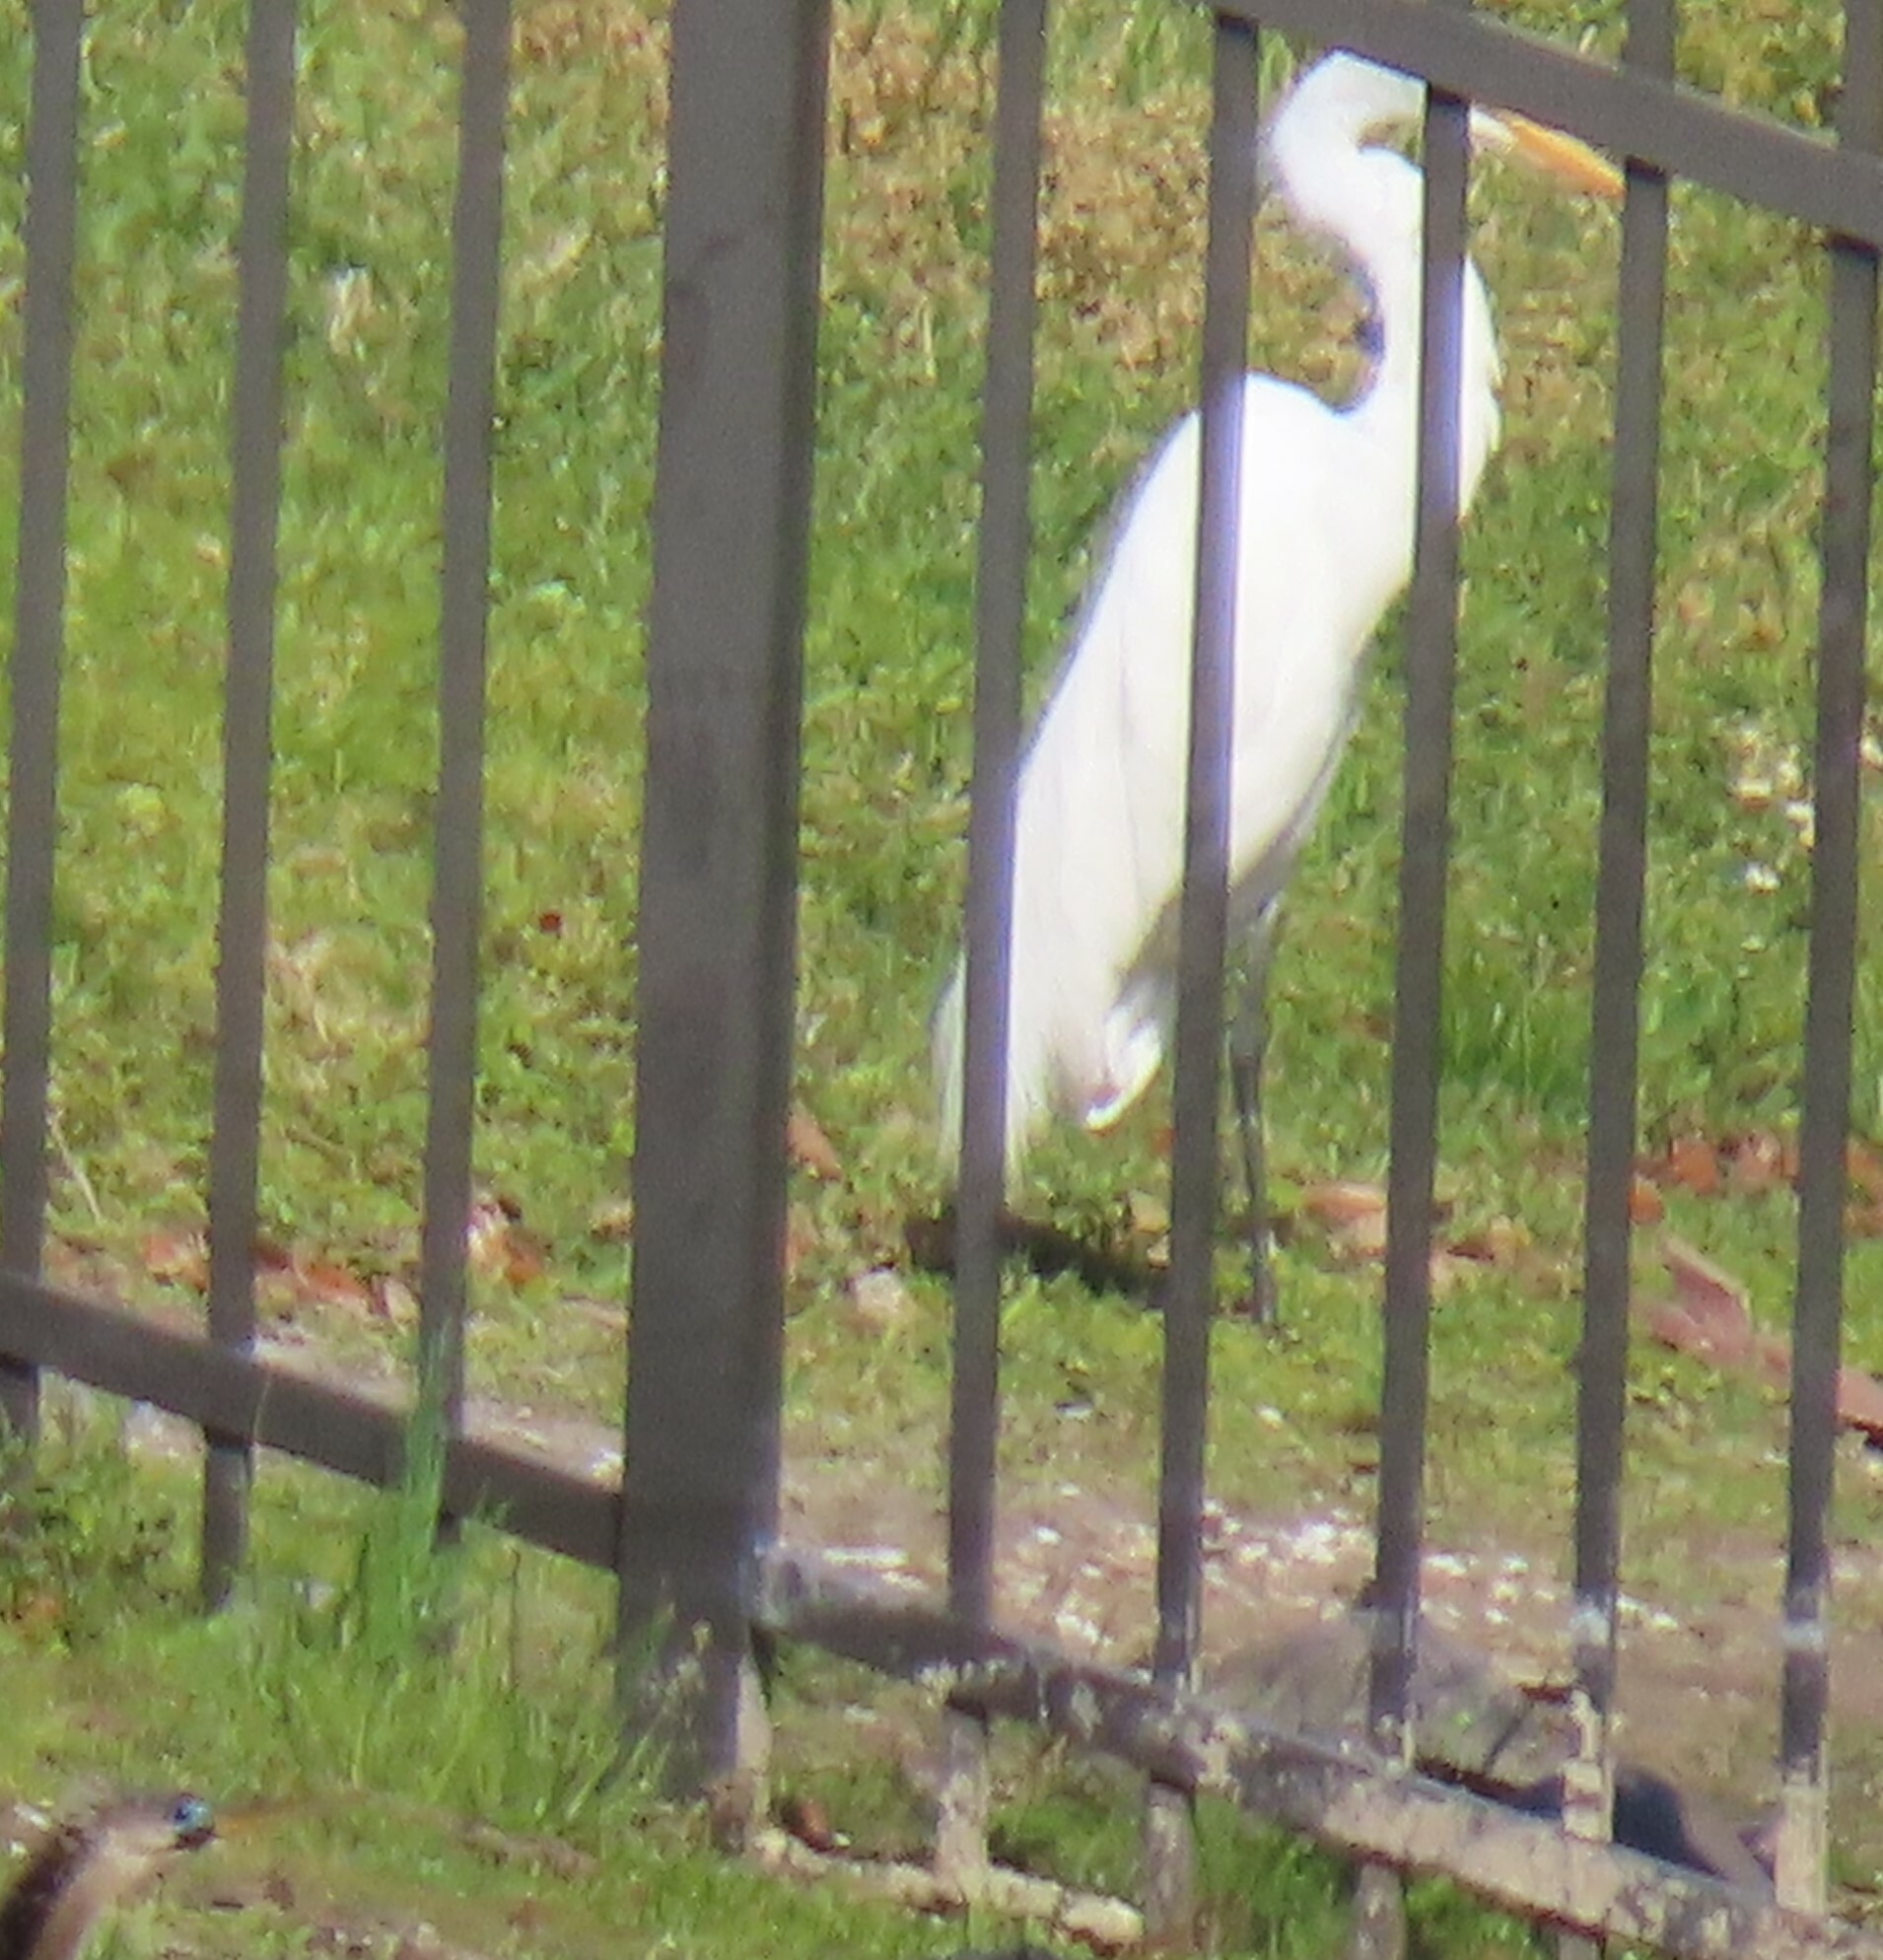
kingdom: Animalia
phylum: Chordata
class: Aves
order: Pelecaniformes
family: Ardeidae
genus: Ardea
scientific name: Ardea alba
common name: Great egret
